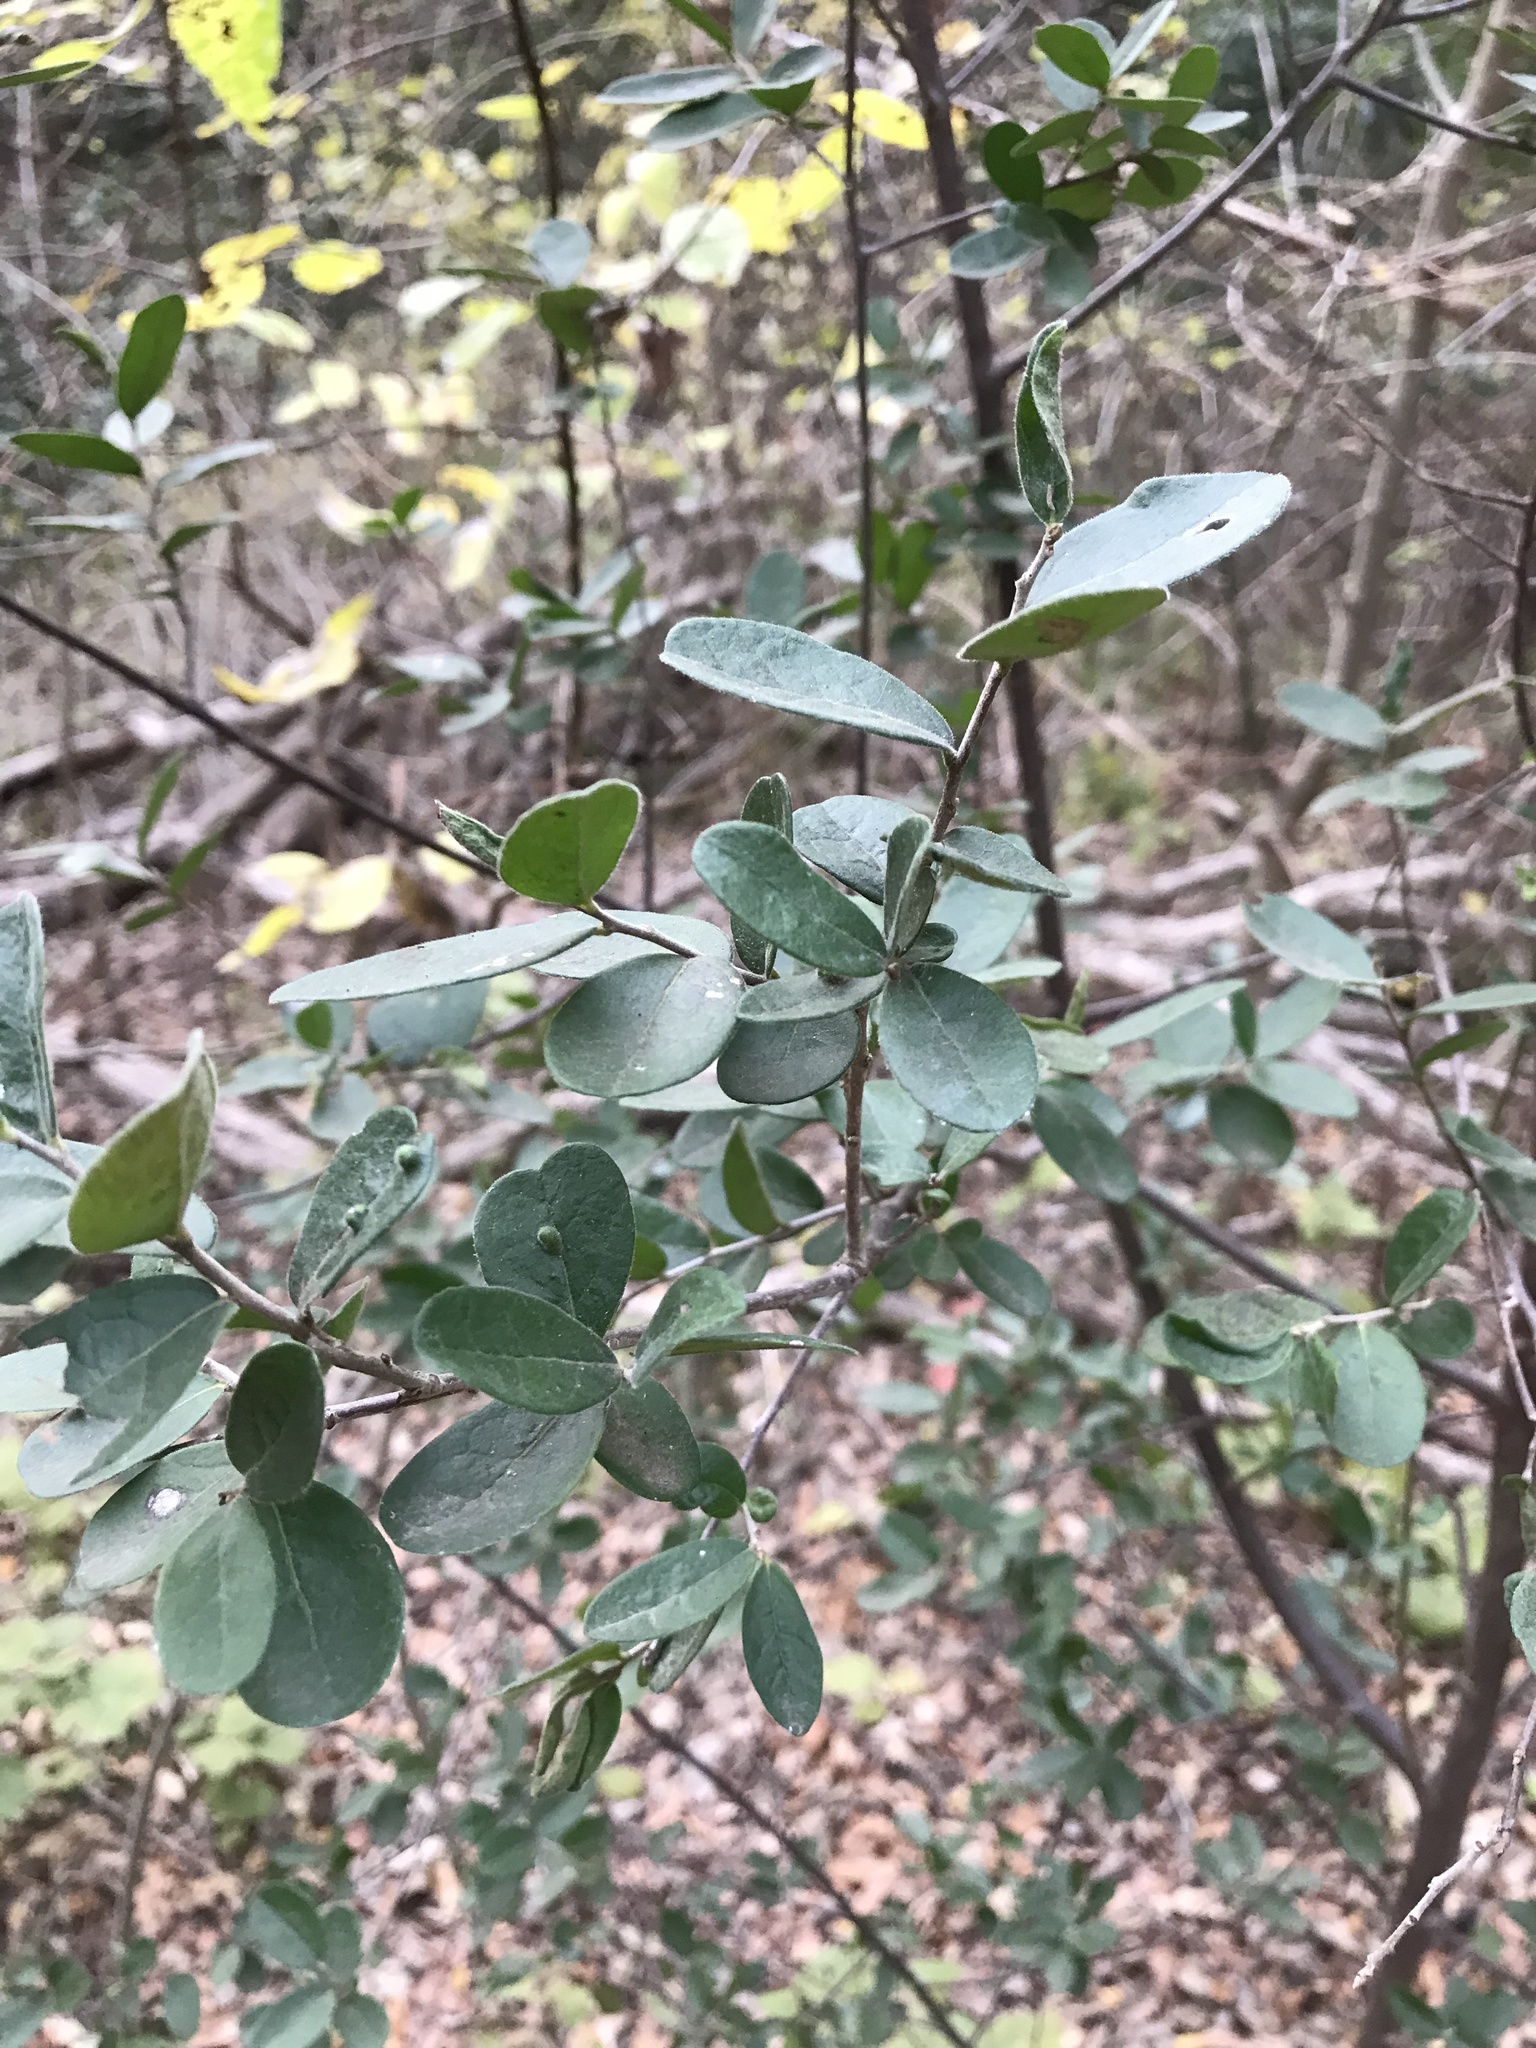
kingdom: Plantae
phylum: Tracheophyta
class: Magnoliopsida
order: Ericales
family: Ebenaceae
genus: Diospyros
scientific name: Diospyros texana
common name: Texas persimmon
